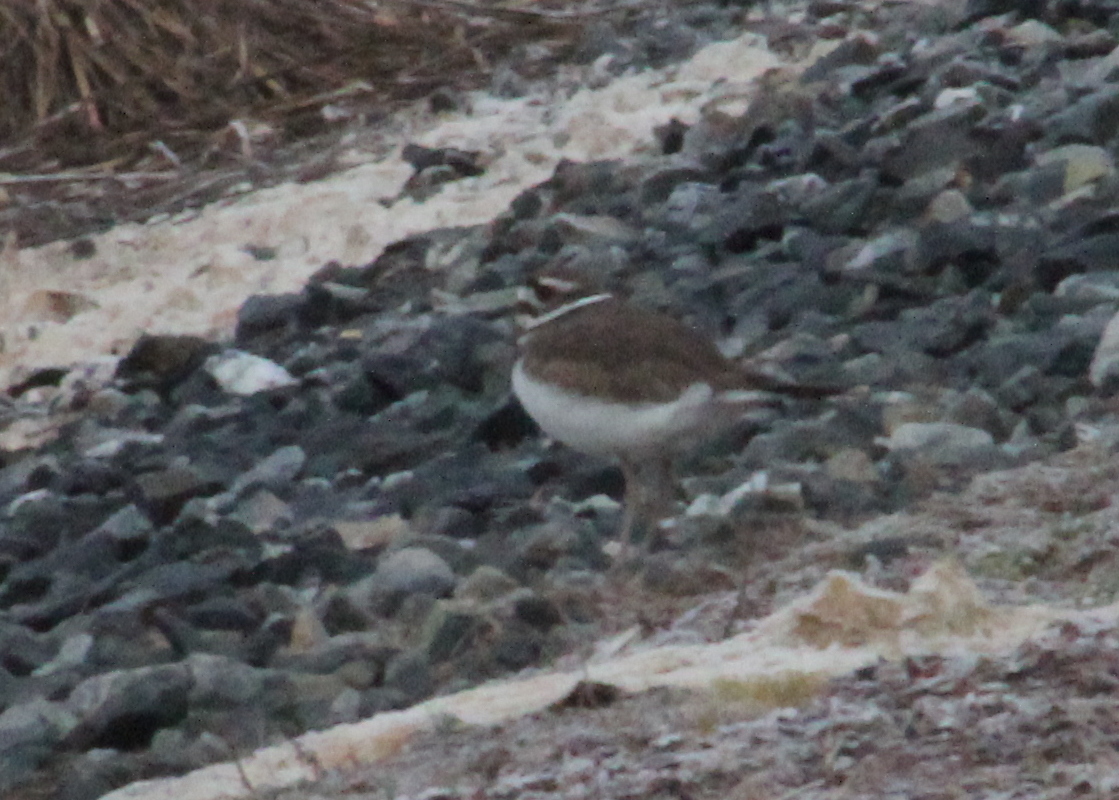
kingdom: Animalia
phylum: Chordata
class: Aves
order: Charadriiformes
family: Charadriidae
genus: Charadrius
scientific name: Charadrius vociferus
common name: Killdeer
